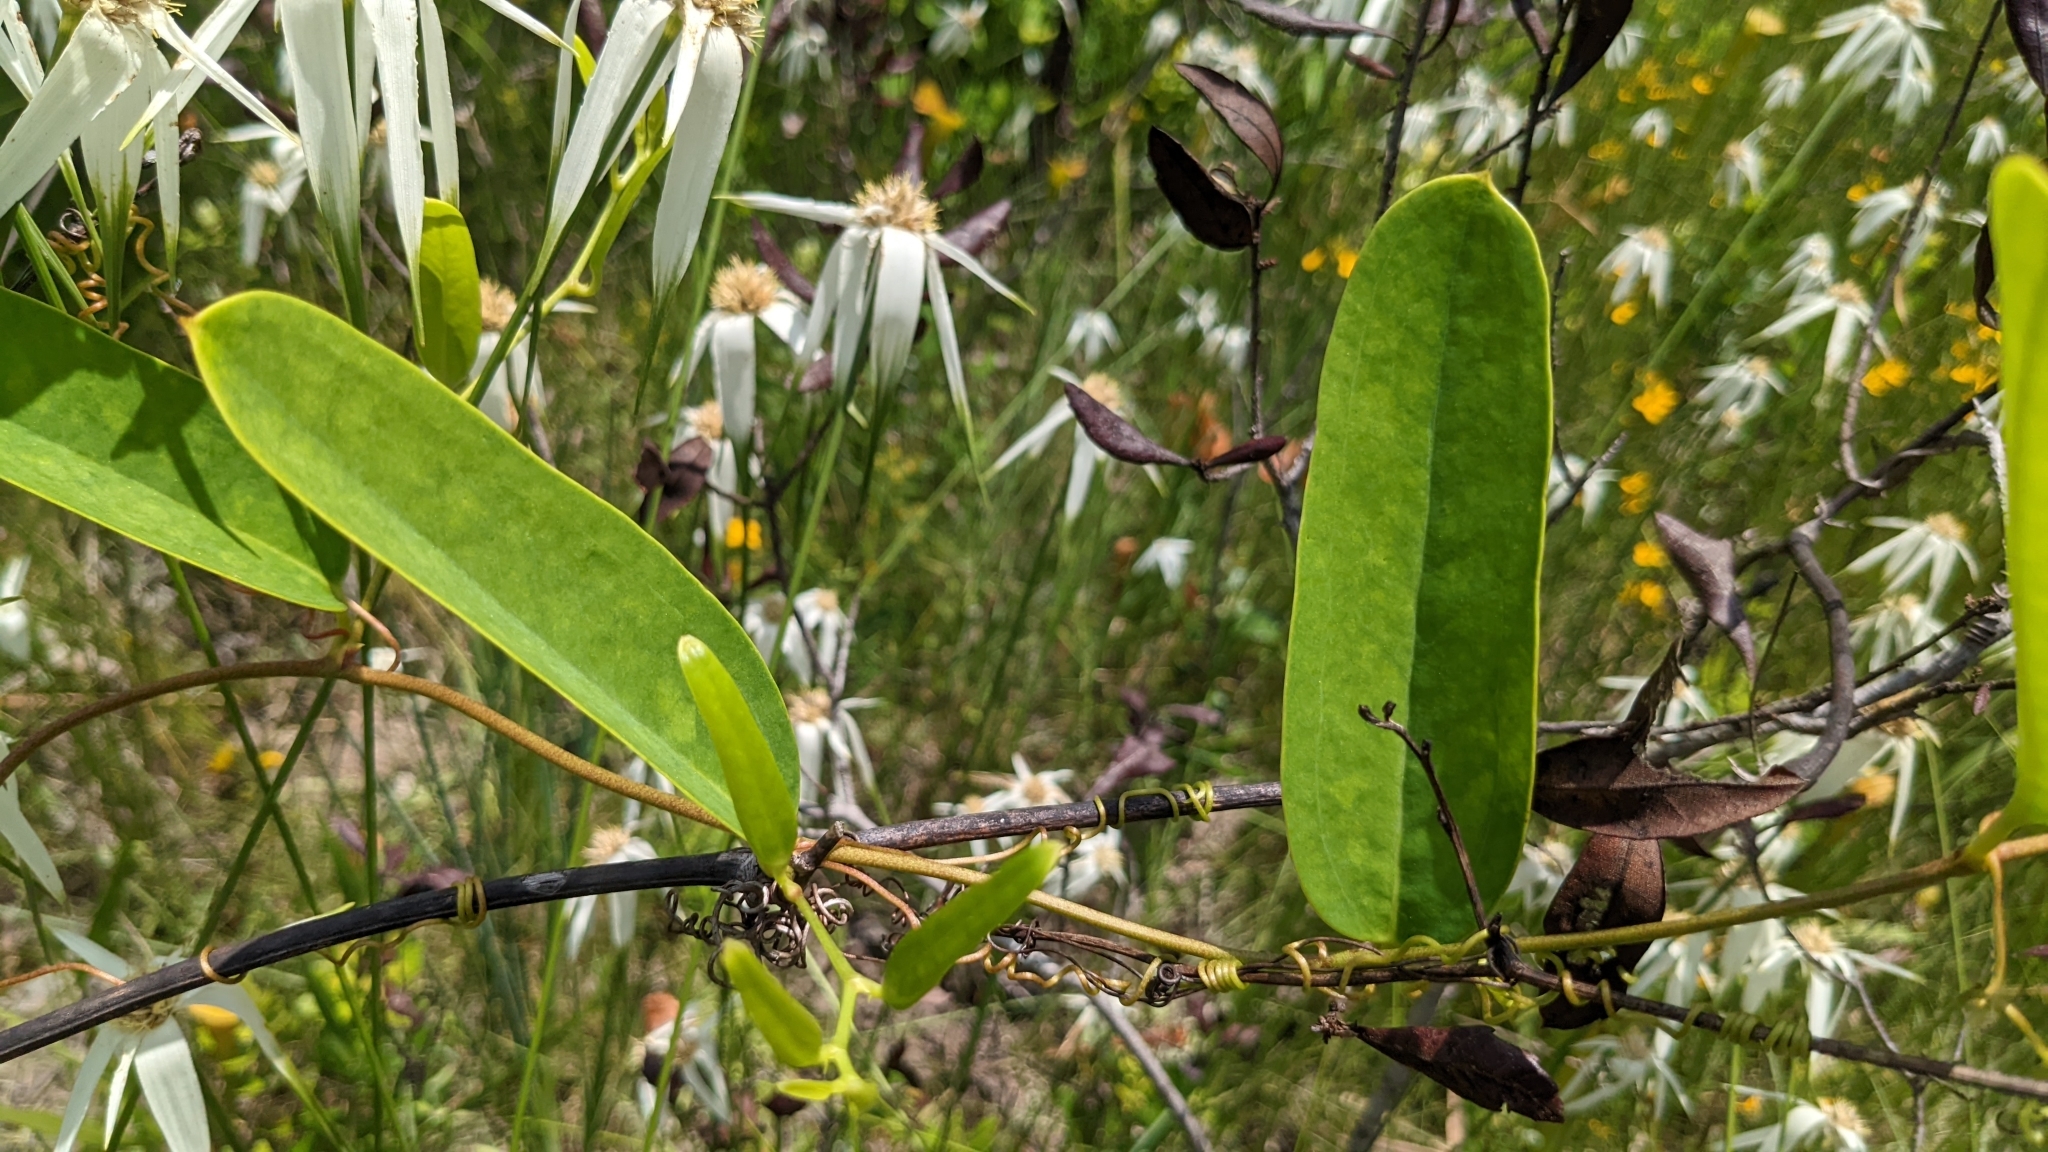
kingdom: Plantae
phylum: Tracheophyta
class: Liliopsida
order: Liliales
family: Smilacaceae
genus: Smilax
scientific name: Smilax laurifolia
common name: Bamboovine
